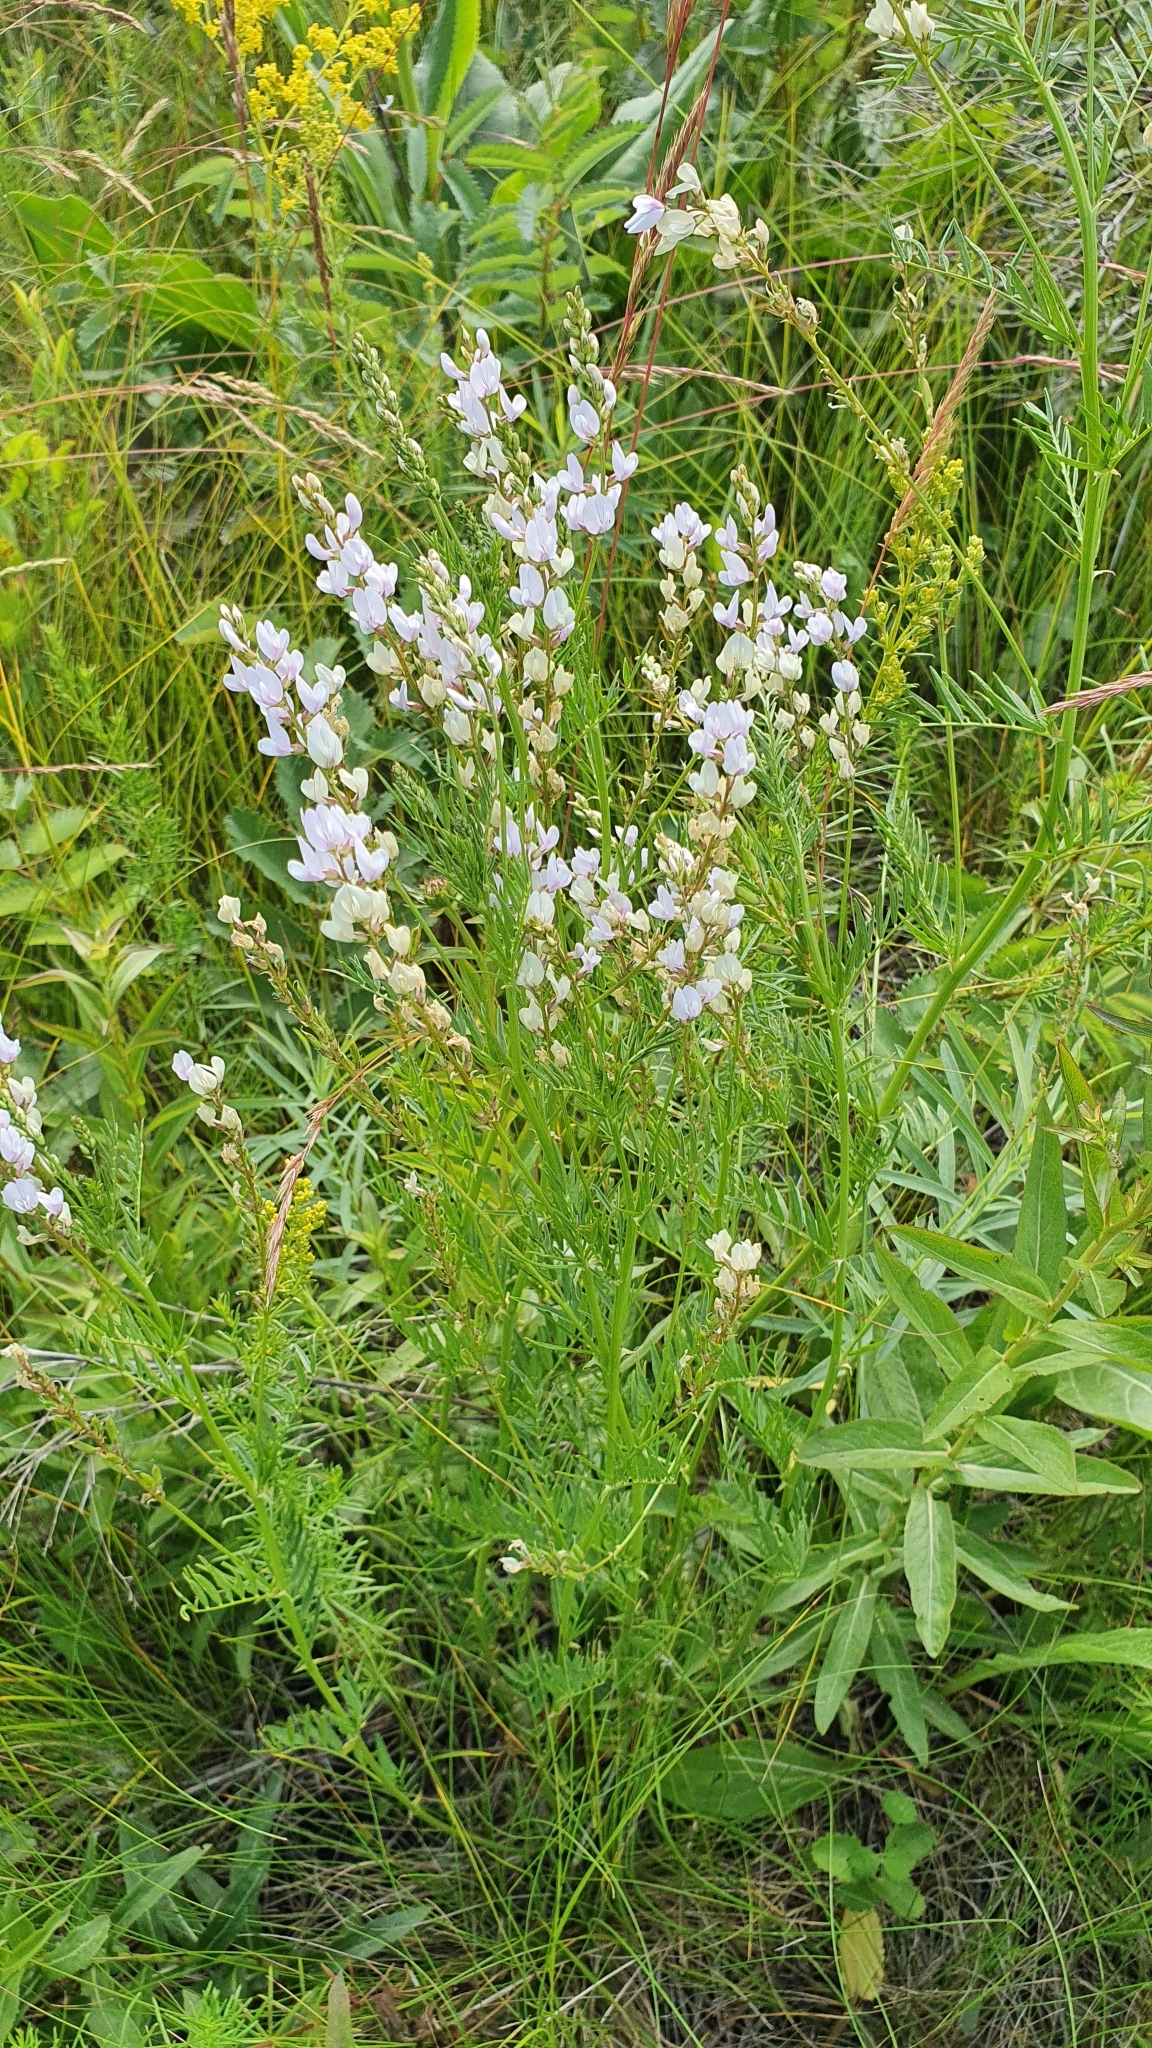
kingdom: Plantae
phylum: Tracheophyta
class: Magnoliopsida
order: Fabales
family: Fabaceae
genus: Astragalus
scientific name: Astragalus sulcatus
